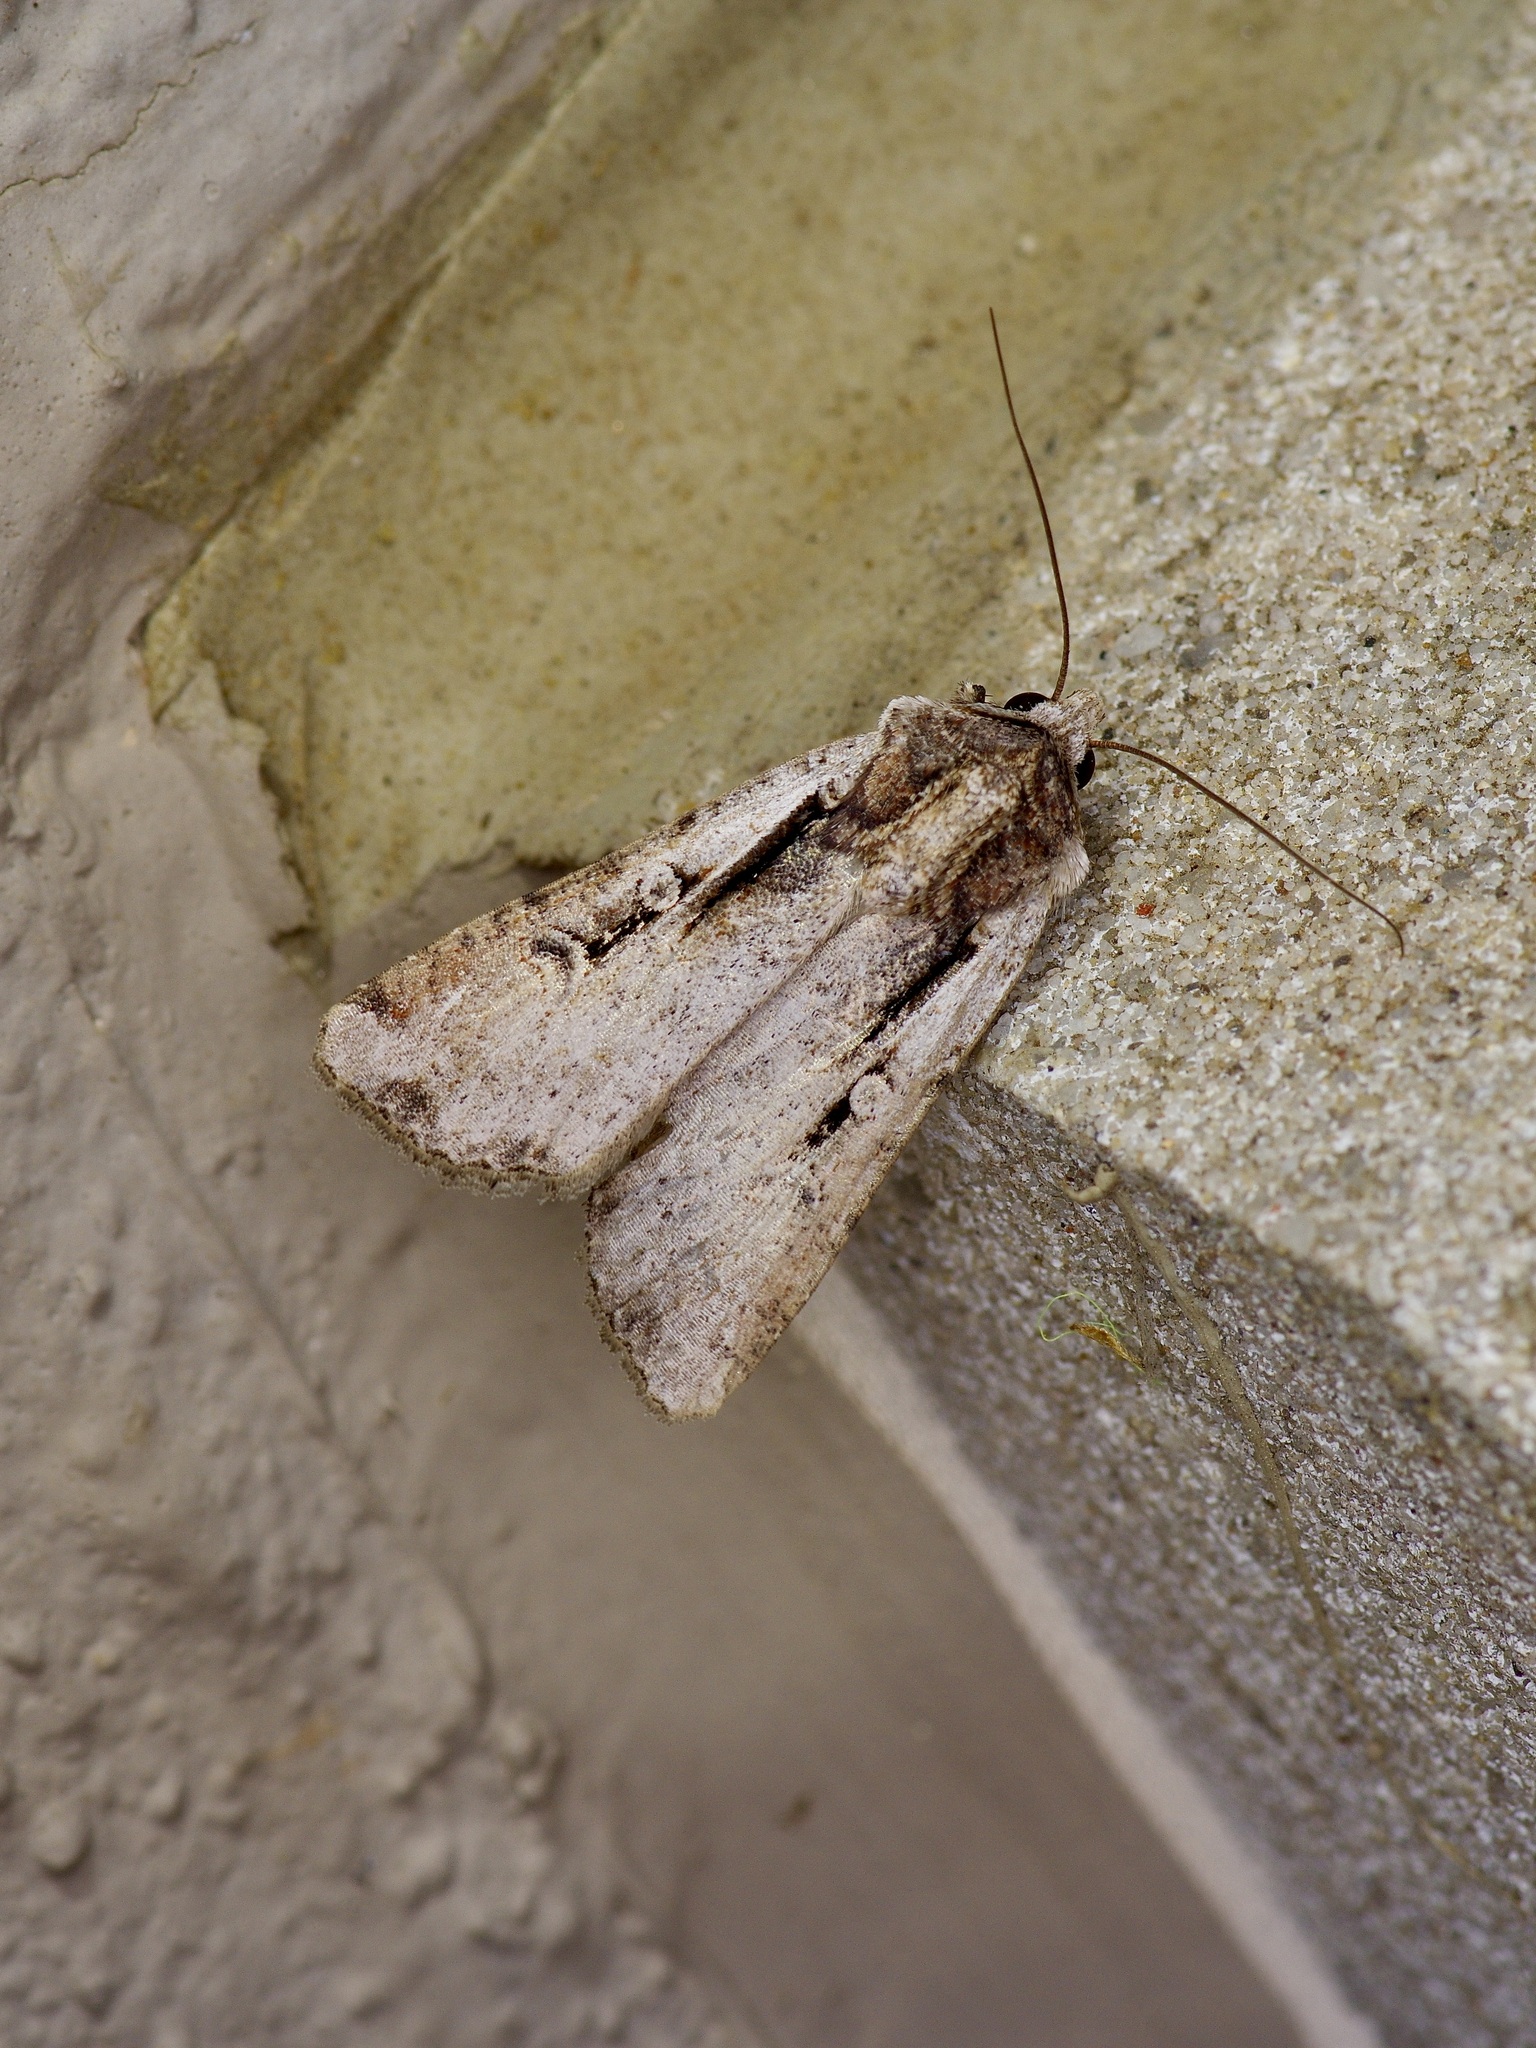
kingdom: Animalia
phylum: Arthropoda
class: Insecta
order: Lepidoptera
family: Noctuidae
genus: Hemieuxoa
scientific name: Hemieuxoa rudens
